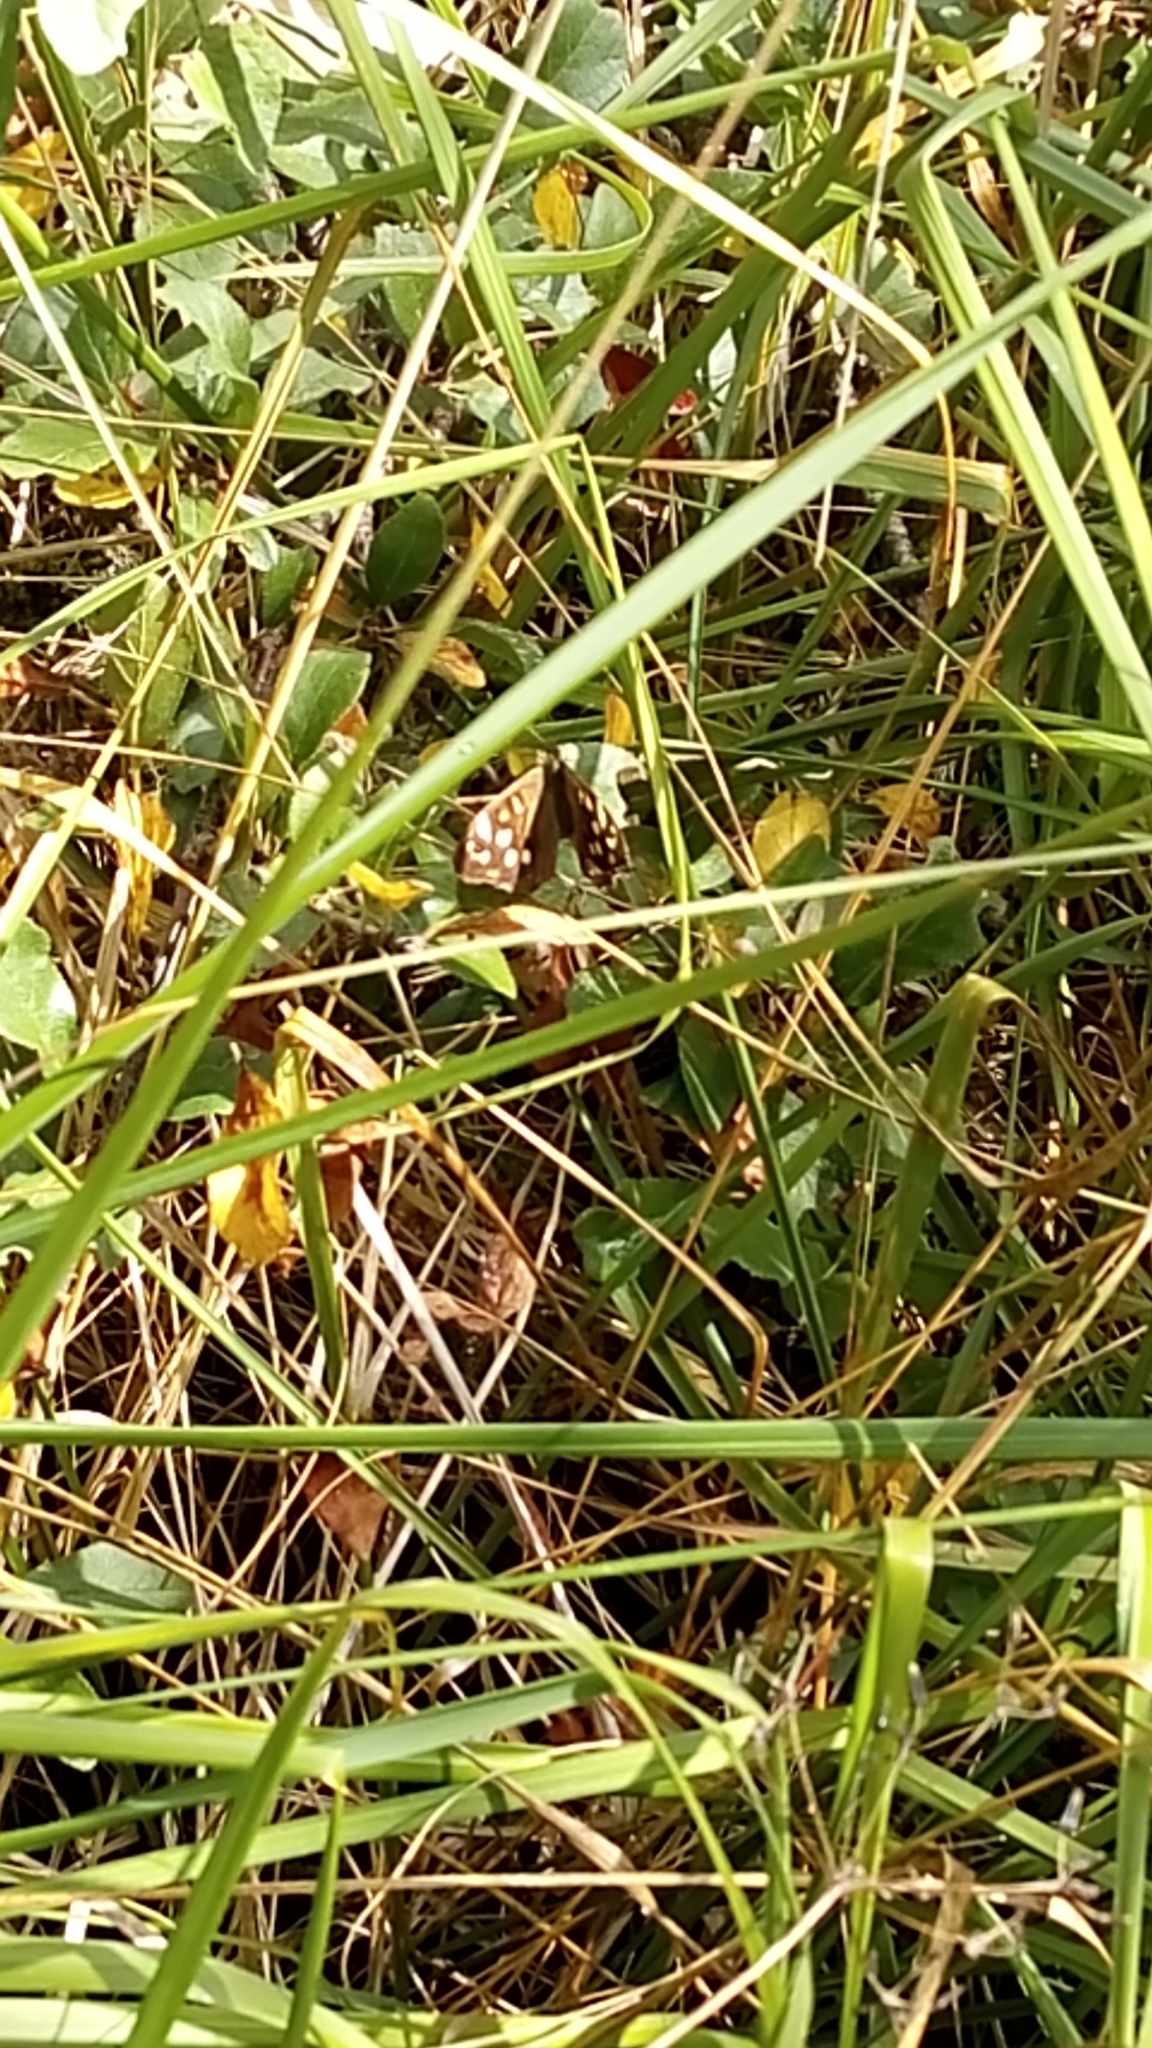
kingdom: Animalia
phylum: Arthropoda
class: Insecta
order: Lepidoptera
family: Nymphalidae
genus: Pararge
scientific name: Pararge aegeria
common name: Speckled wood
